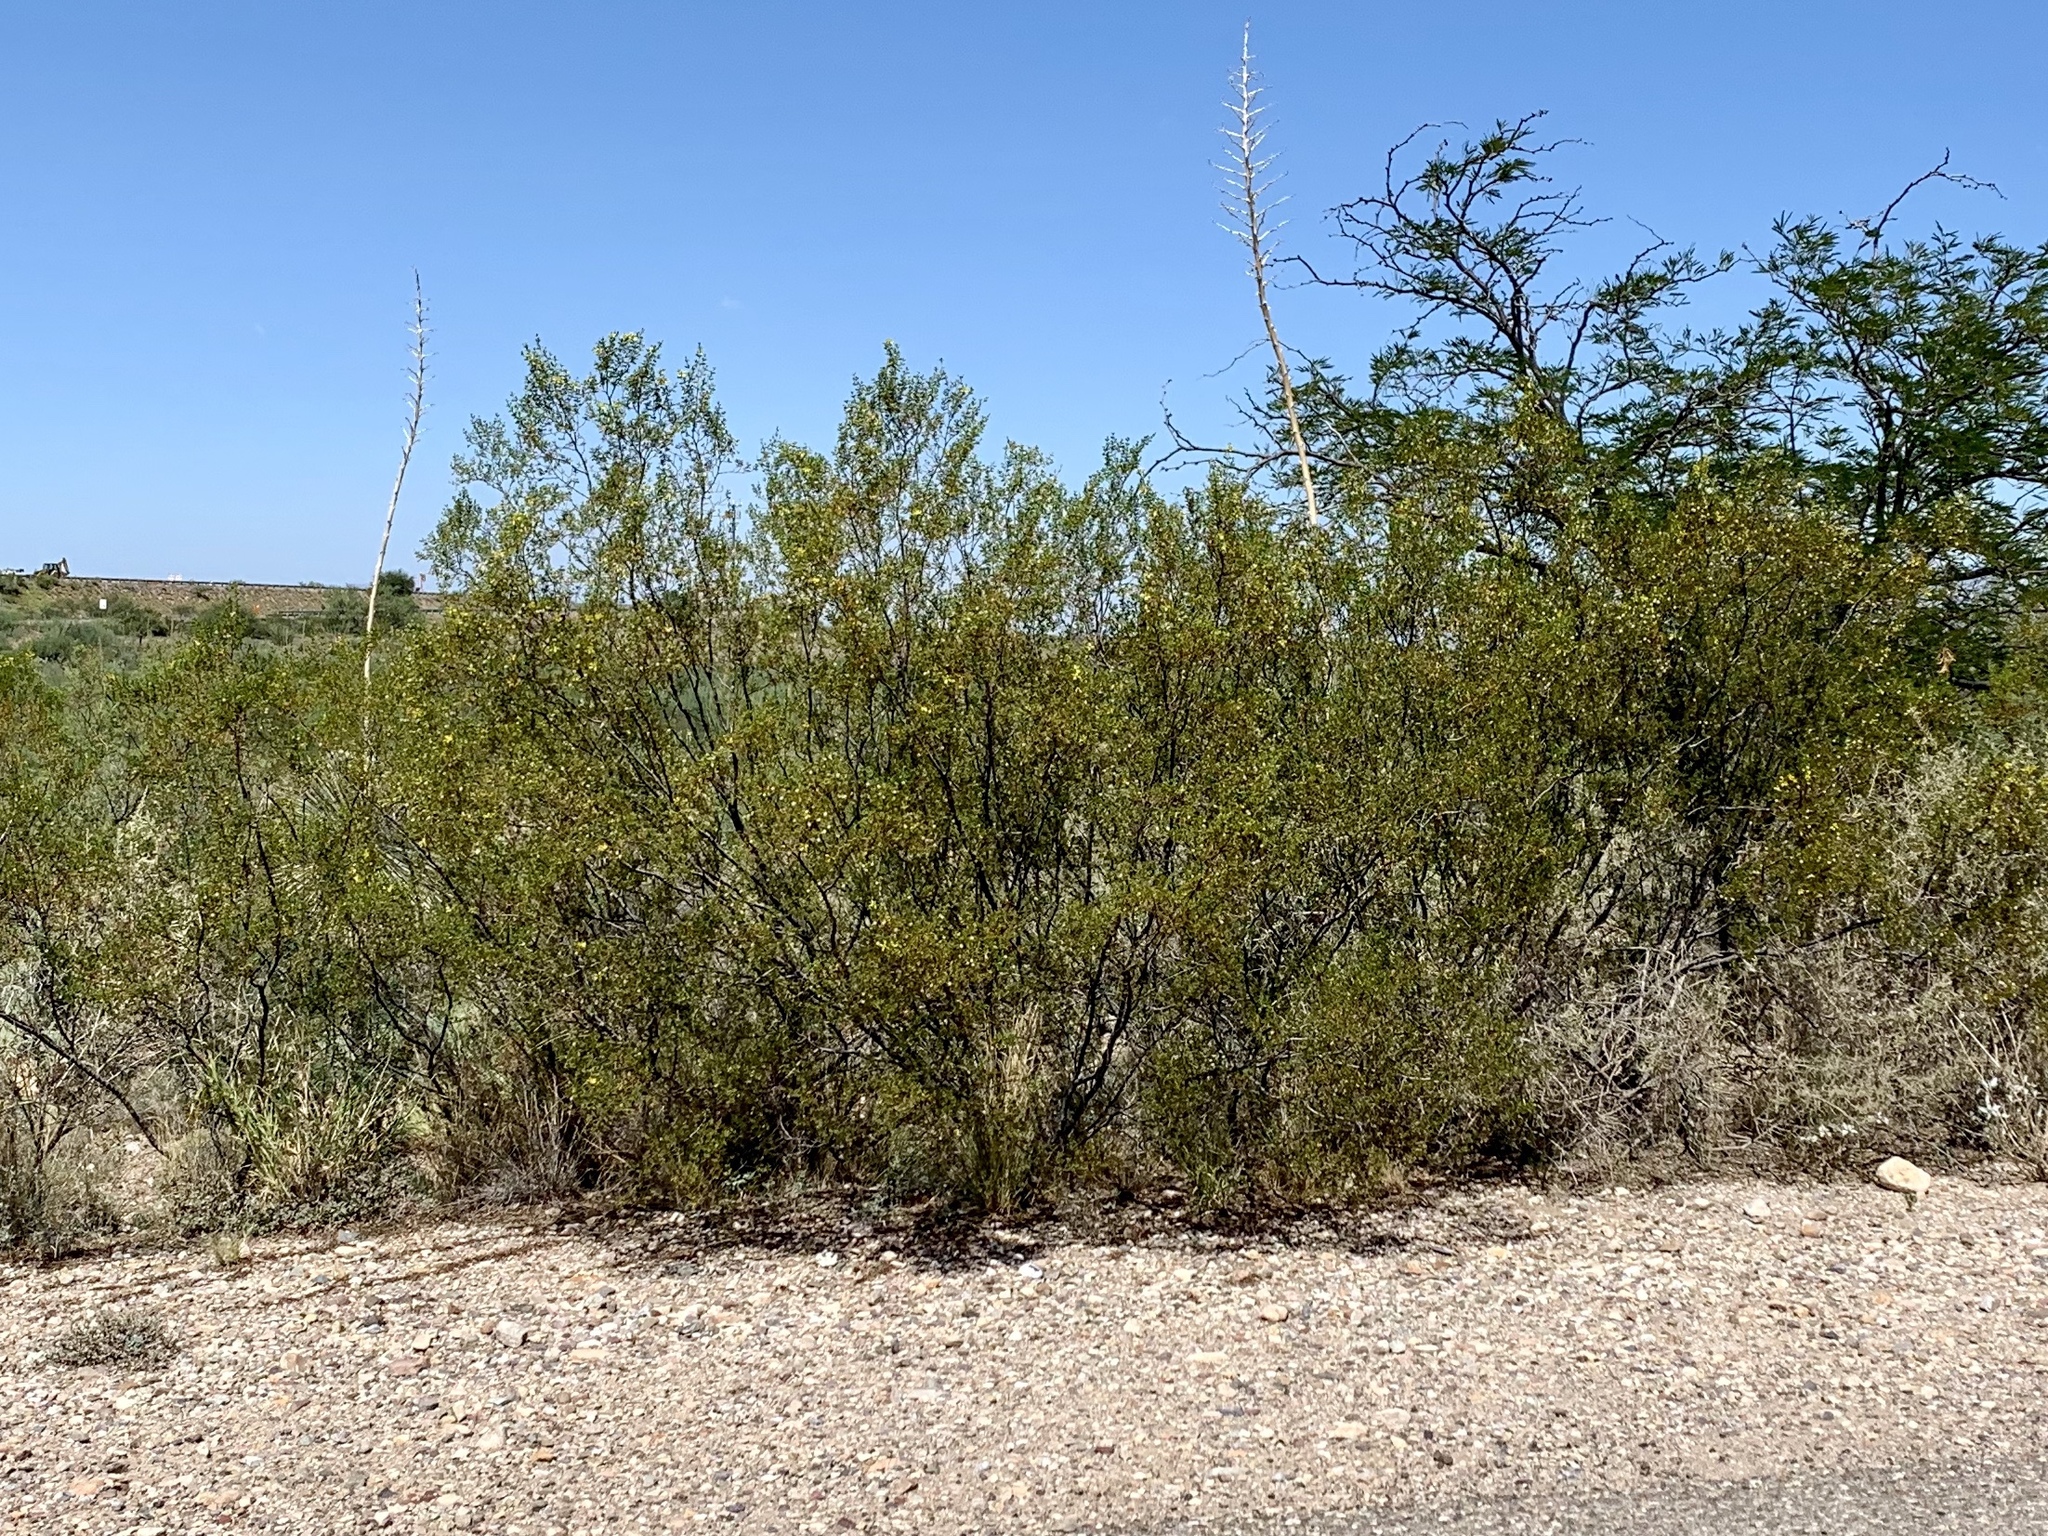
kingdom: Plantae
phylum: Tracheophyta
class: Magnoliopsida
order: Zygophyllales
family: Zygophyllaceae
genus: Larrea
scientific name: Larrea tridentata
